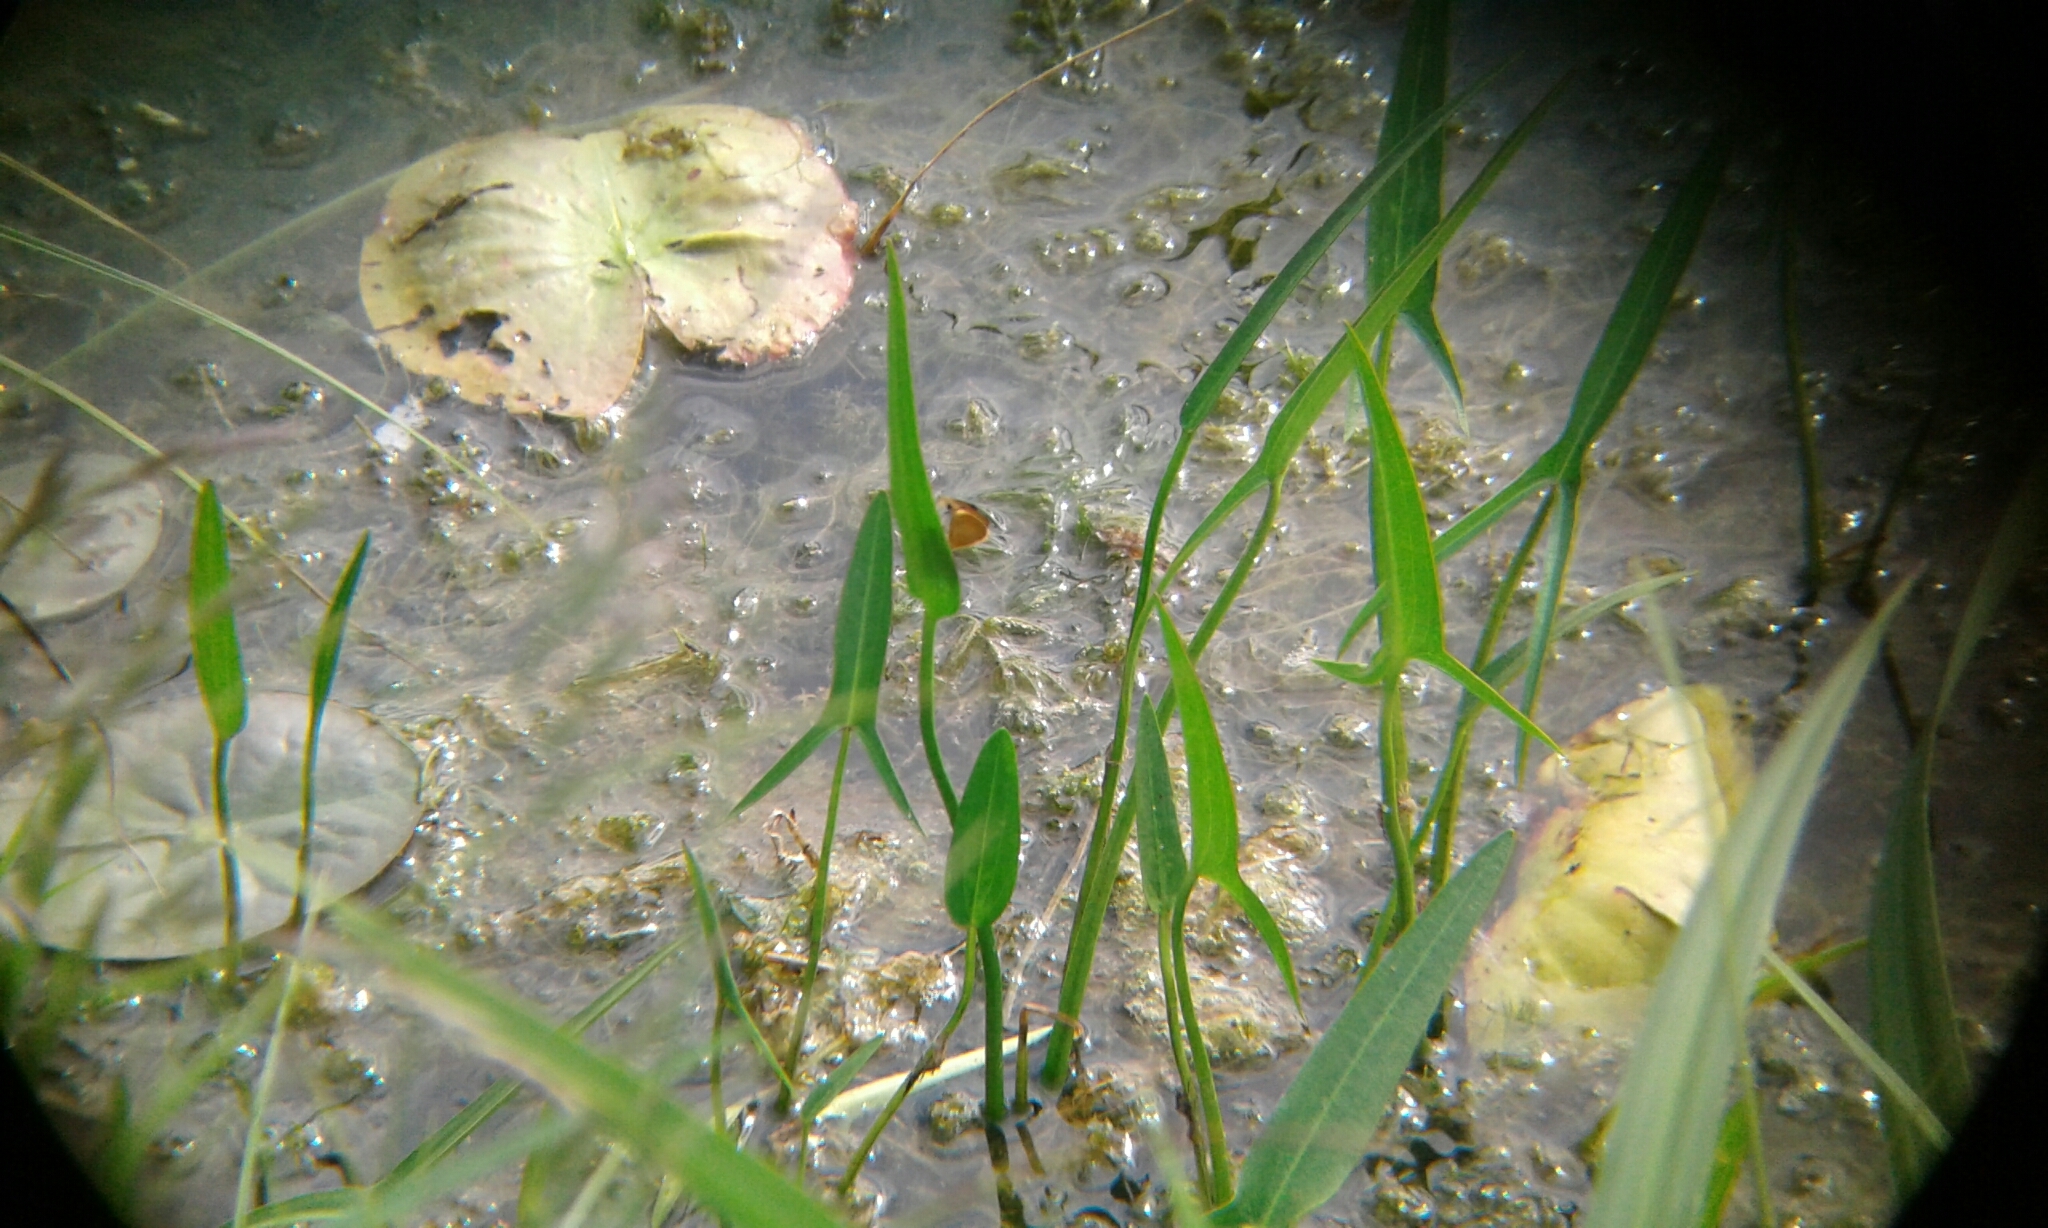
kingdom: Animalia
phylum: Arthropoda
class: Insecta
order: Lepidoptera
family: Hesperiidae
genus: Ancyloxypha
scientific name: Ancyloxypha numitor
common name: Least skipper
